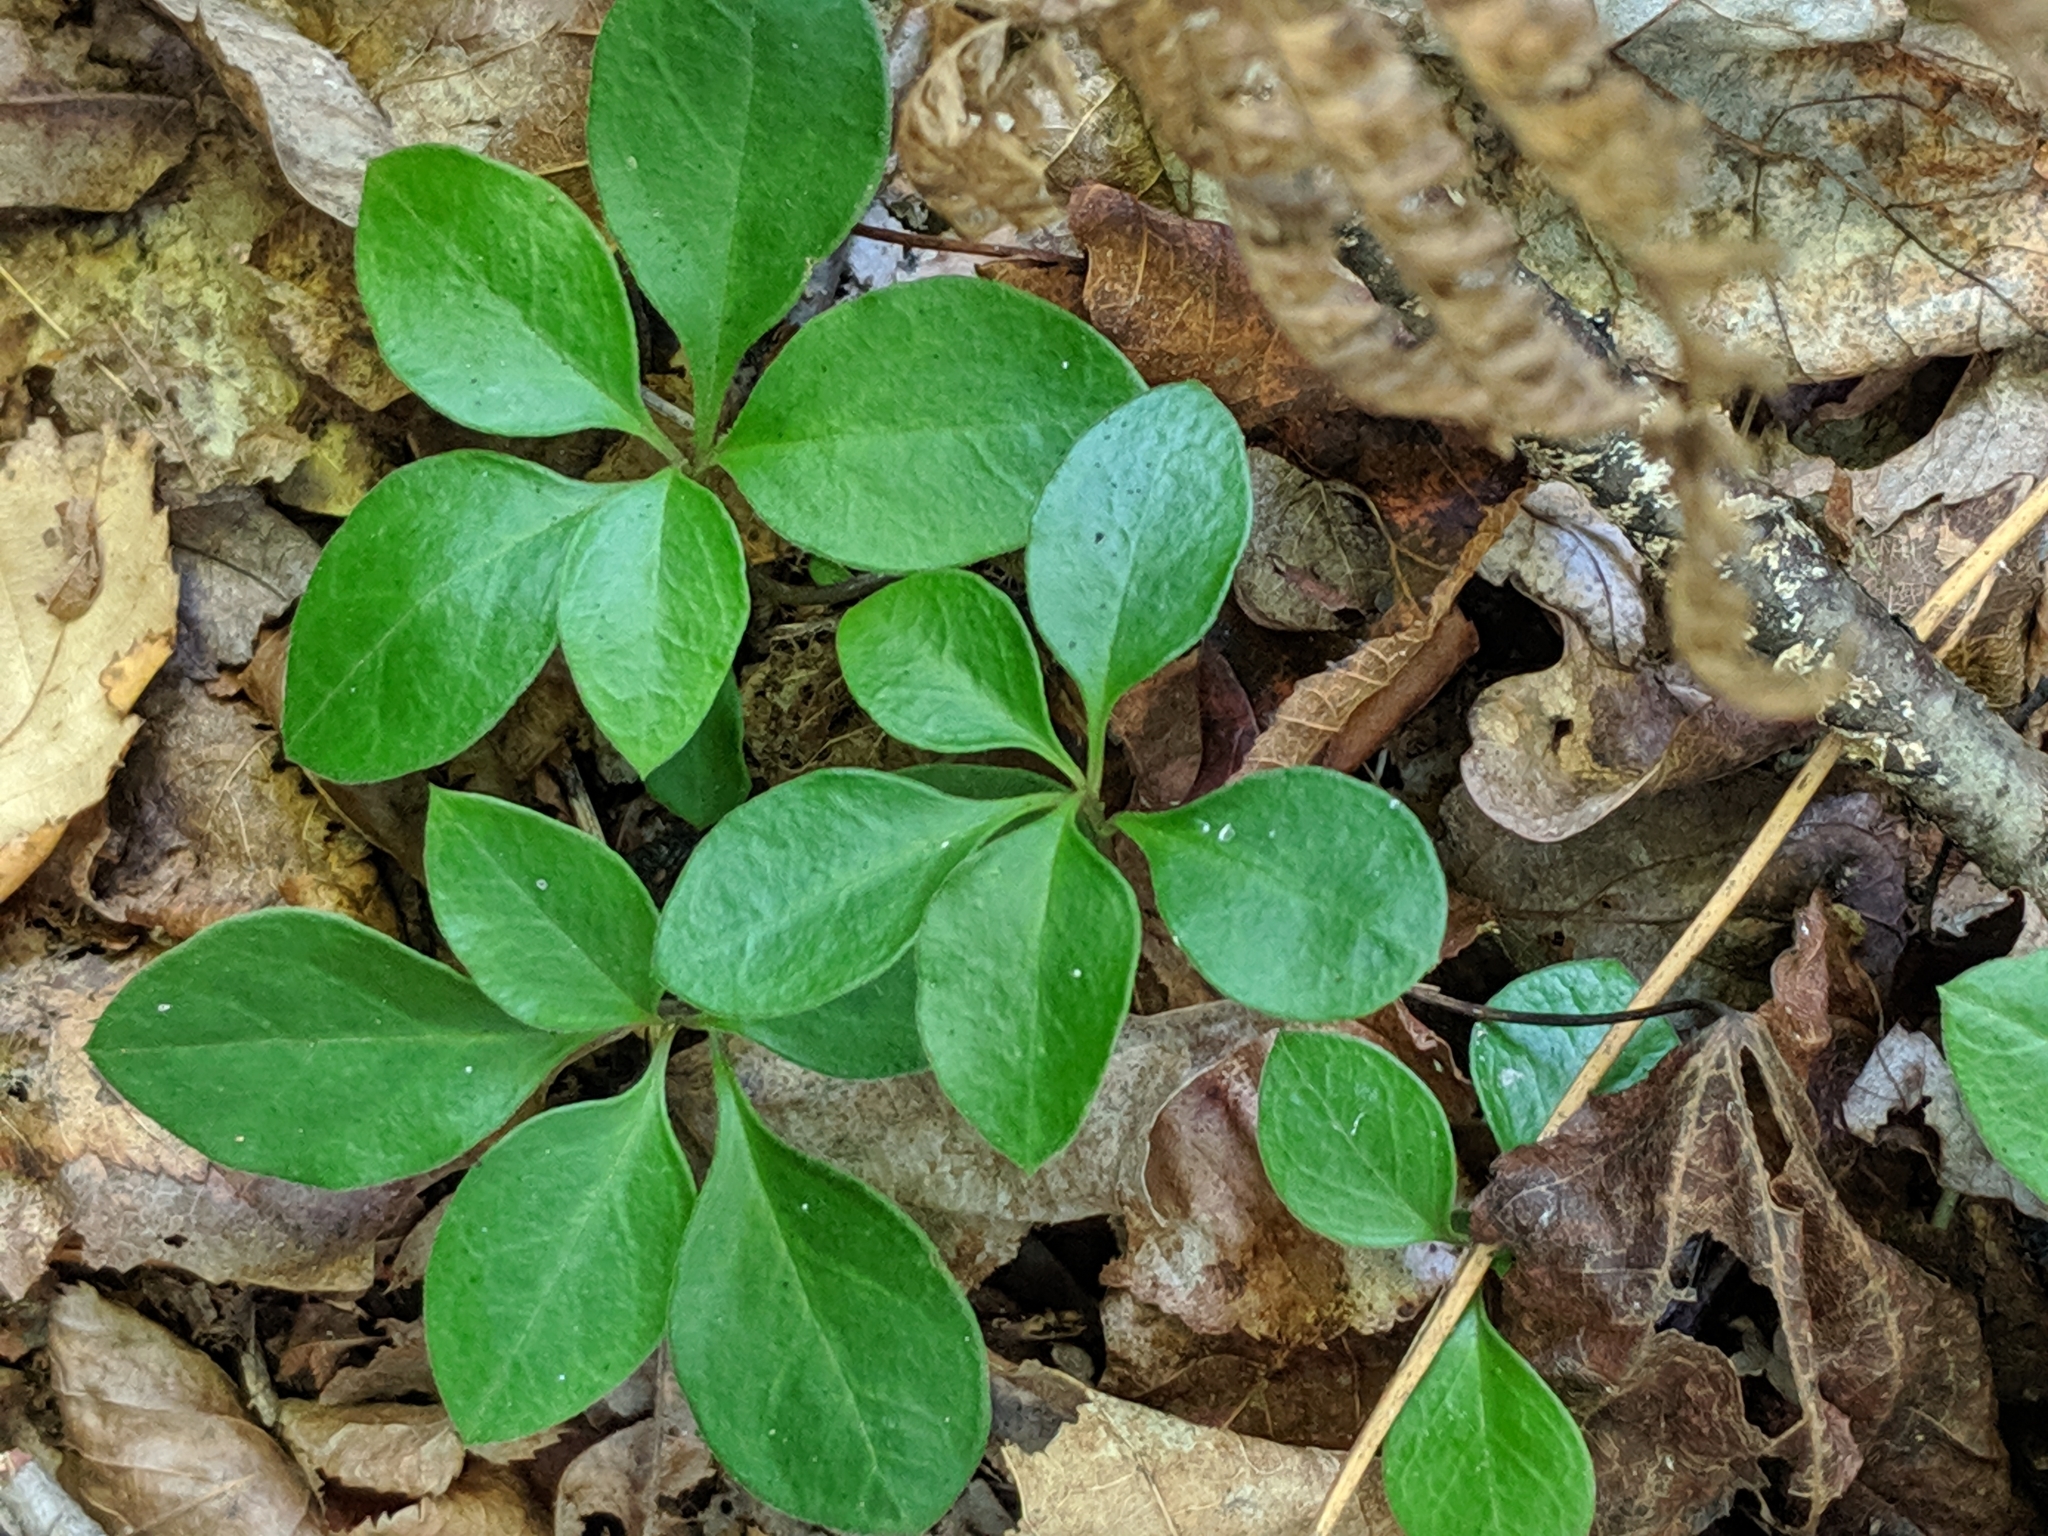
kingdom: Plantae
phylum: Tracheophyta
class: Magnoliopsida
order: Fabales
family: Polygalaceae
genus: Polygaloides
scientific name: Polygaloides paucifolia
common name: Bird-on-the-wing
